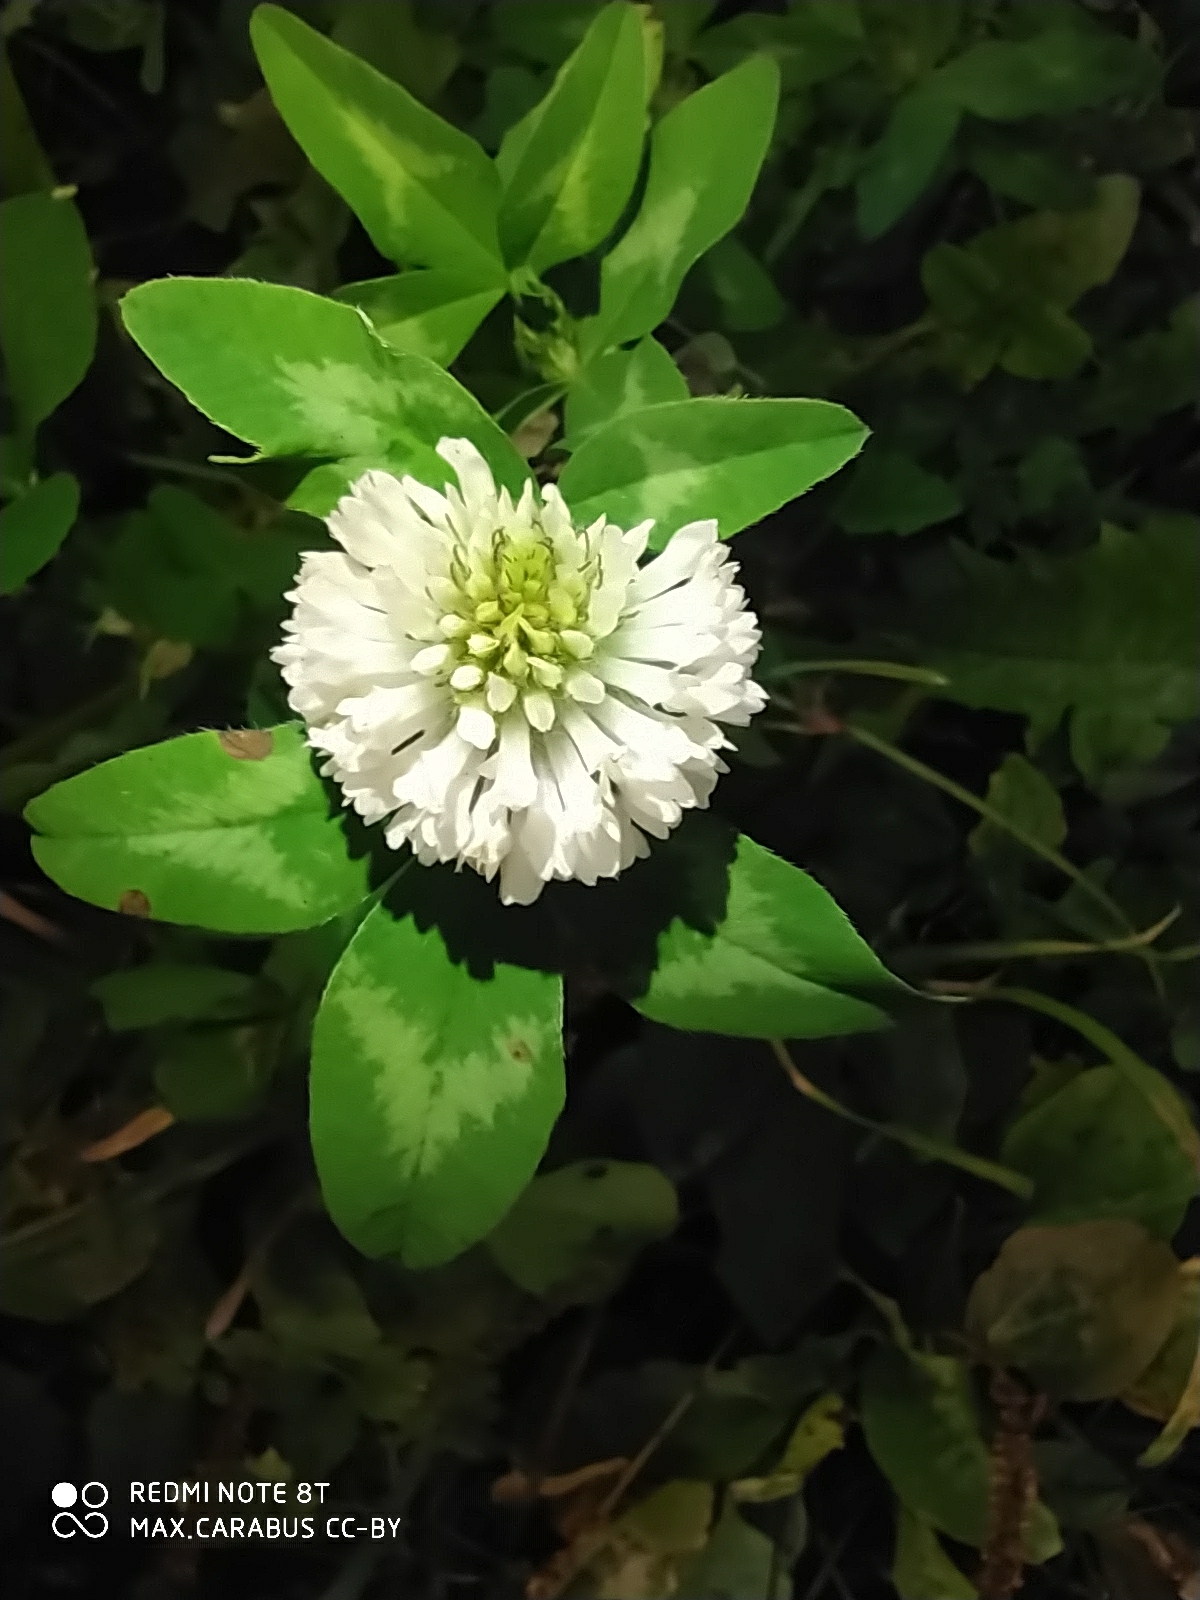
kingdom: Plantae
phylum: Tracheophyta
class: Magnoliopsida
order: Fabales
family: Fabaceae
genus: Trifolium
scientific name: Trifolium pratense
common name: Red clover
